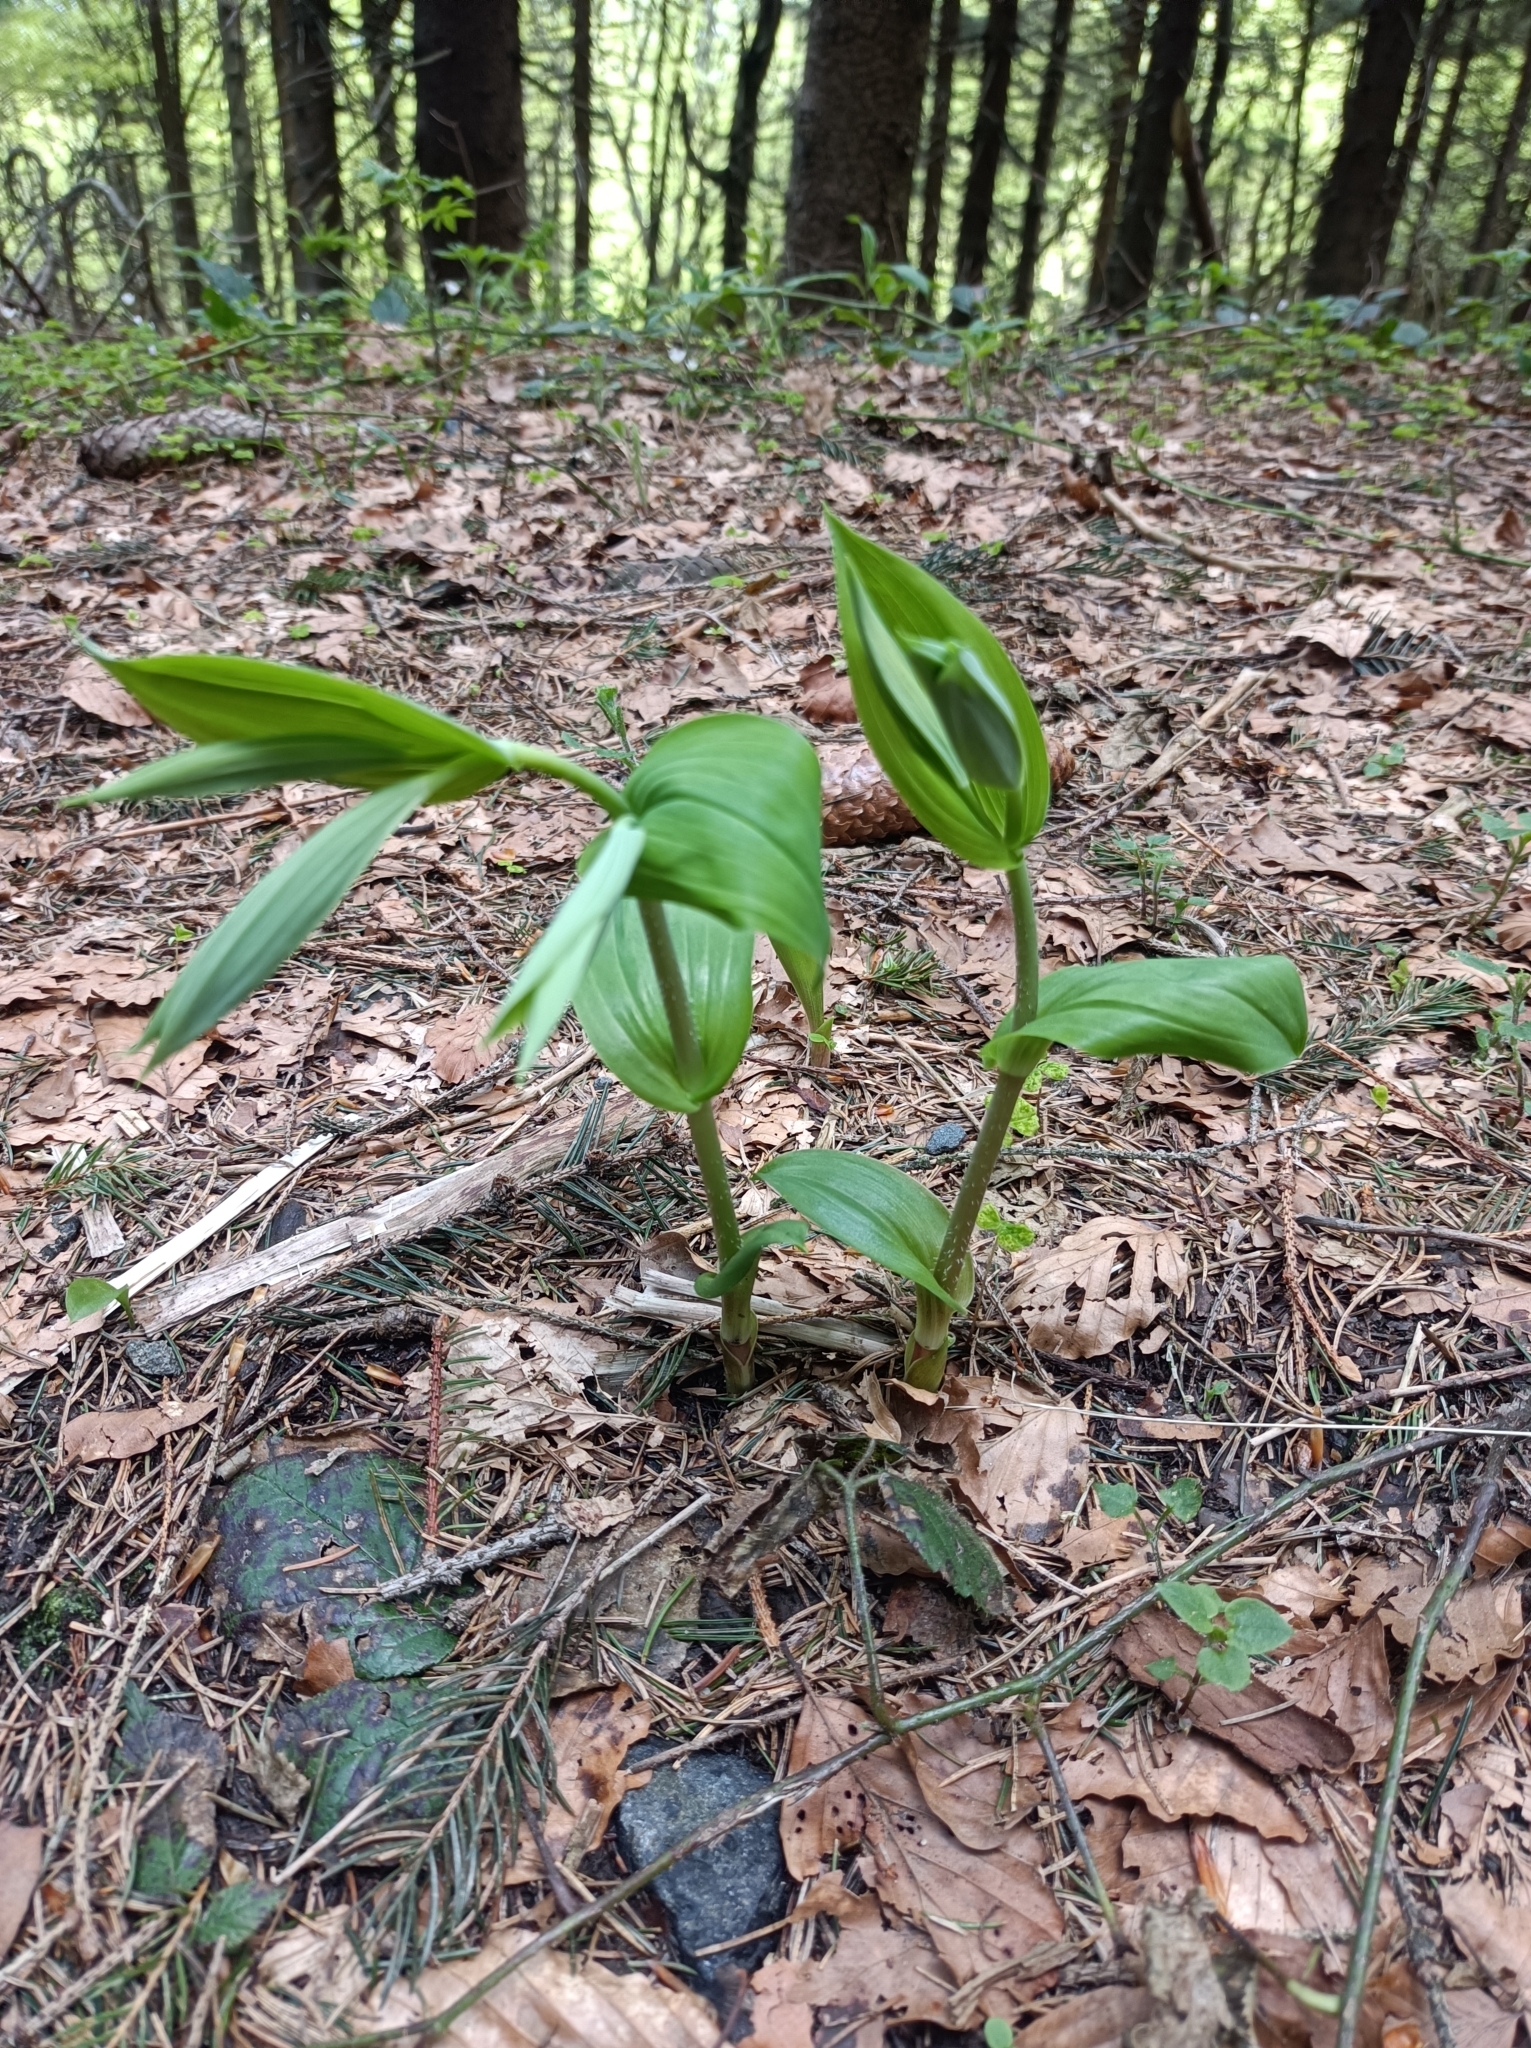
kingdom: Plantae
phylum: Tracheophyta
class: Liliopsida
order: Liliales
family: Liliaceae
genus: Streptopus
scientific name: Streptopus amplexifolius
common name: Clasp twisted stalk
